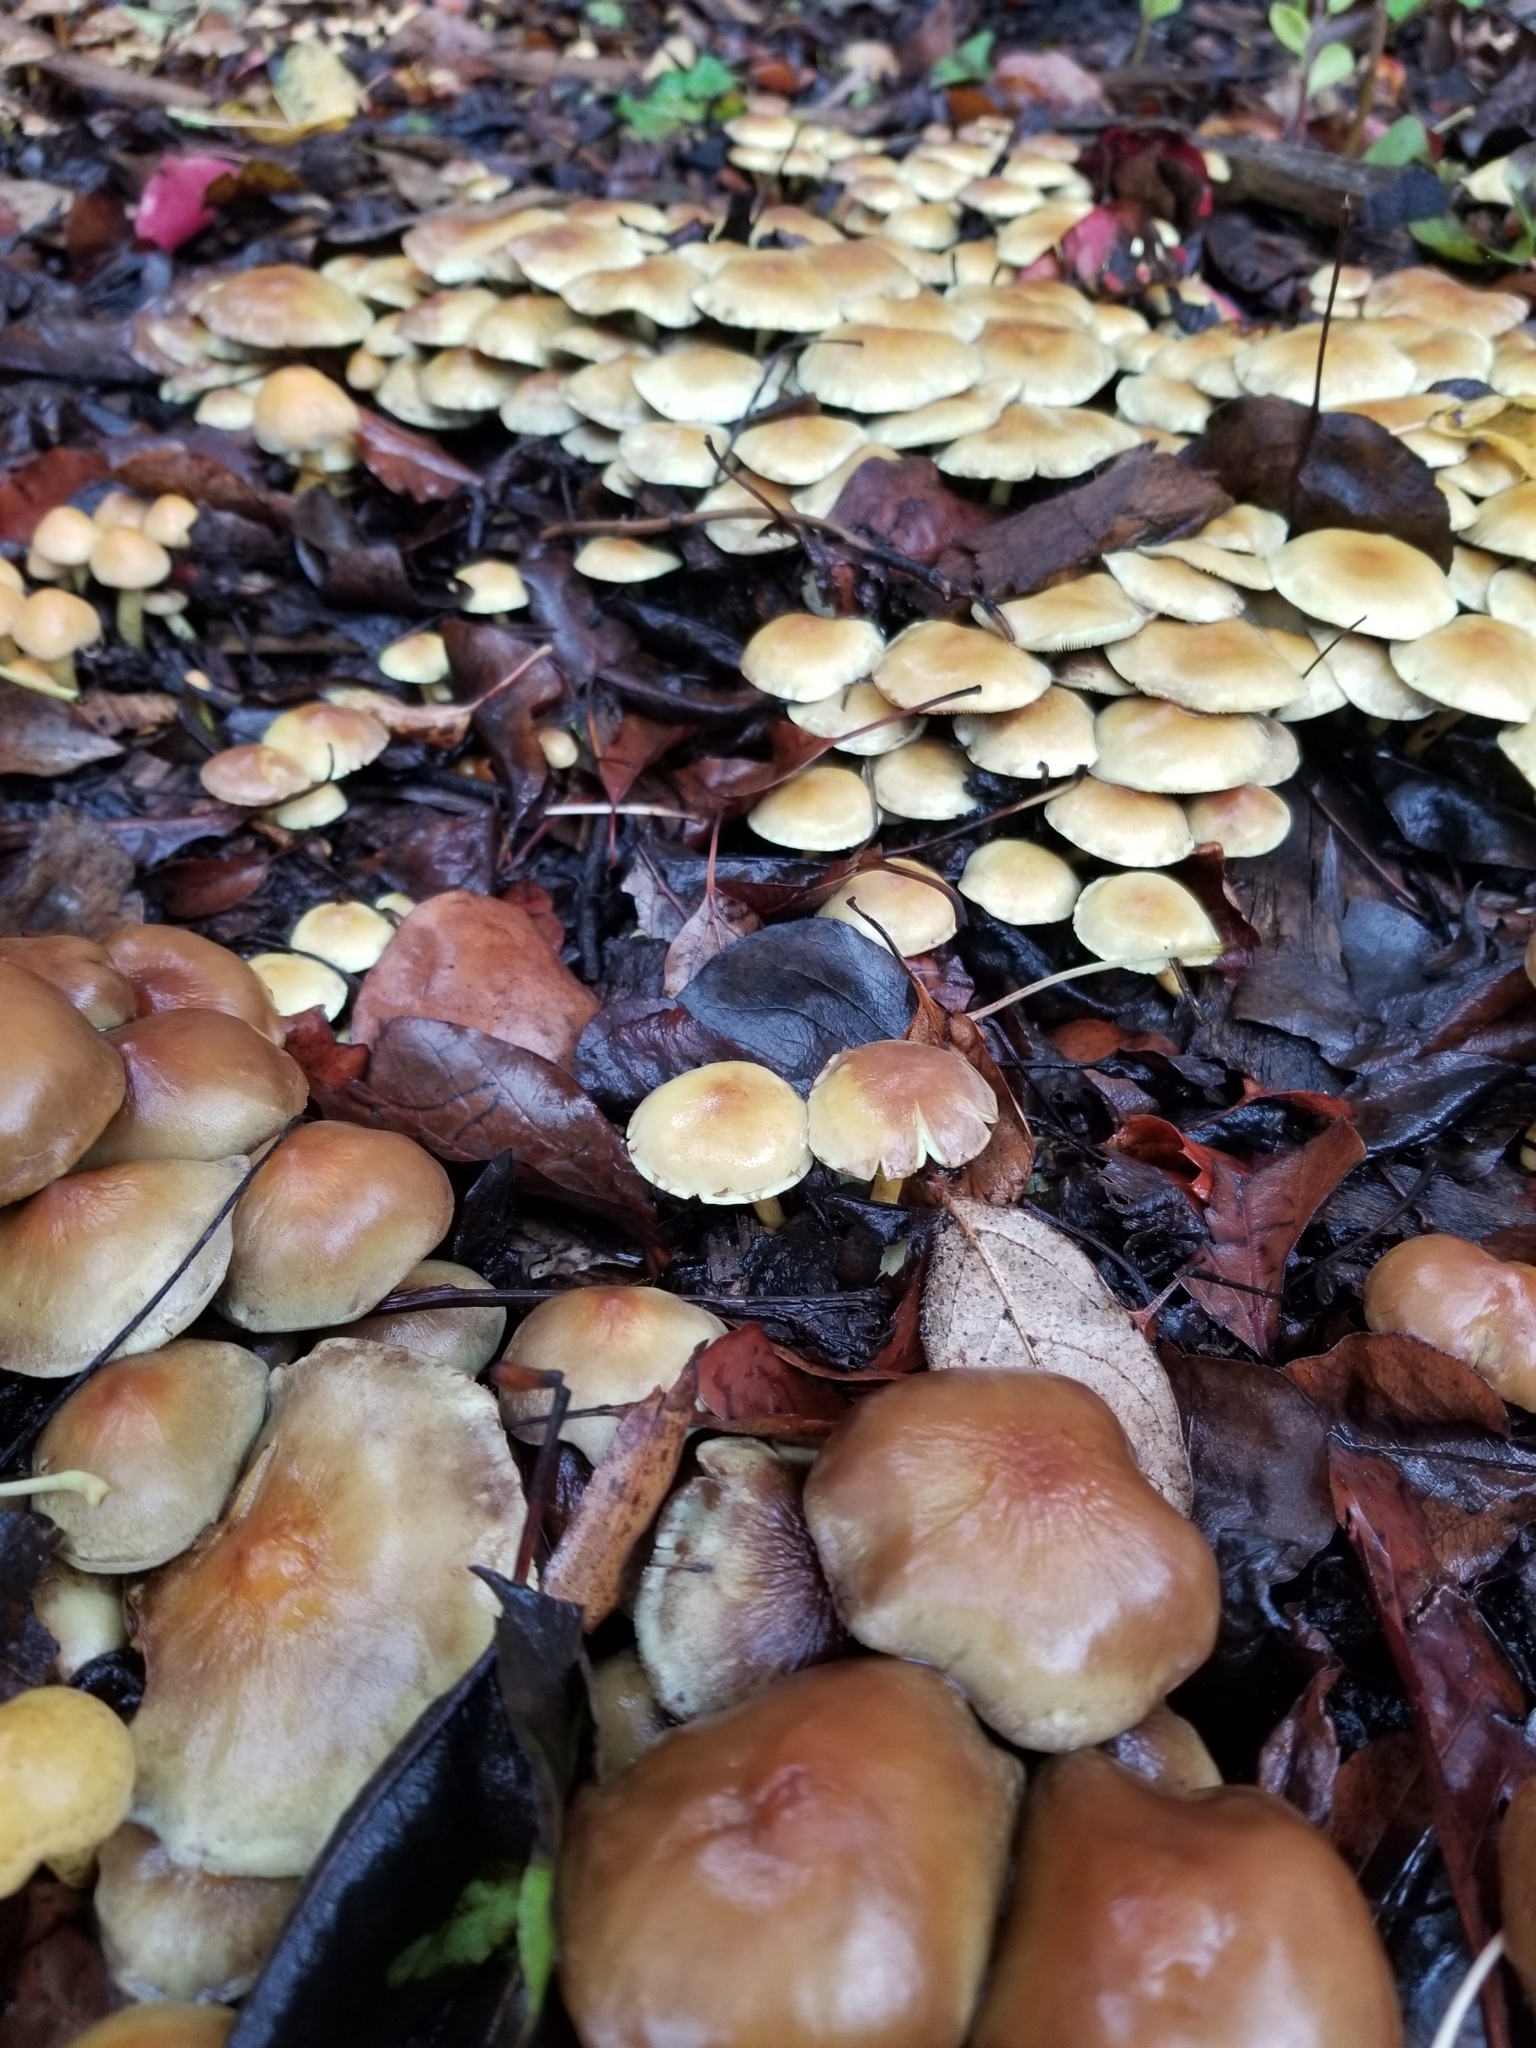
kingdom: Fungi
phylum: Basidiomycota
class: Agaricomycetes
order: Agaricales
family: Strophariaceae
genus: Hypholoma
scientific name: Hypholoma fasciculare
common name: Sulphur tuft
